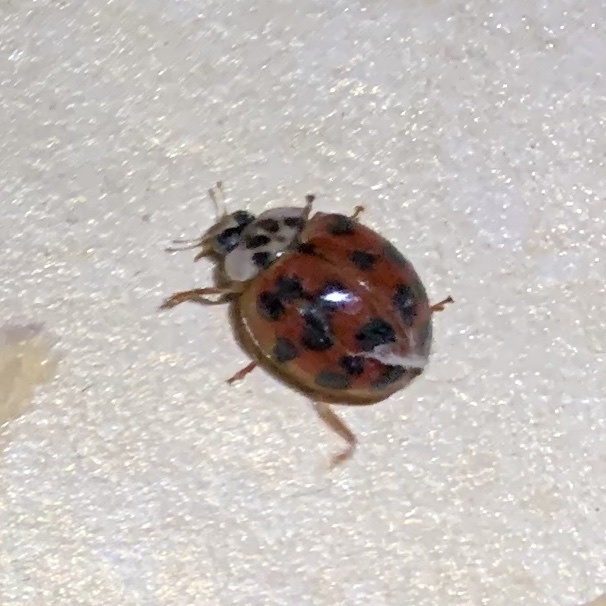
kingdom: Animalia
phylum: Arthropoda
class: Insecta
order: Coleoptera
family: Coccinellidae
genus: Harmonia
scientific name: Harmonia axyridis
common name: Harlequin ladybird
